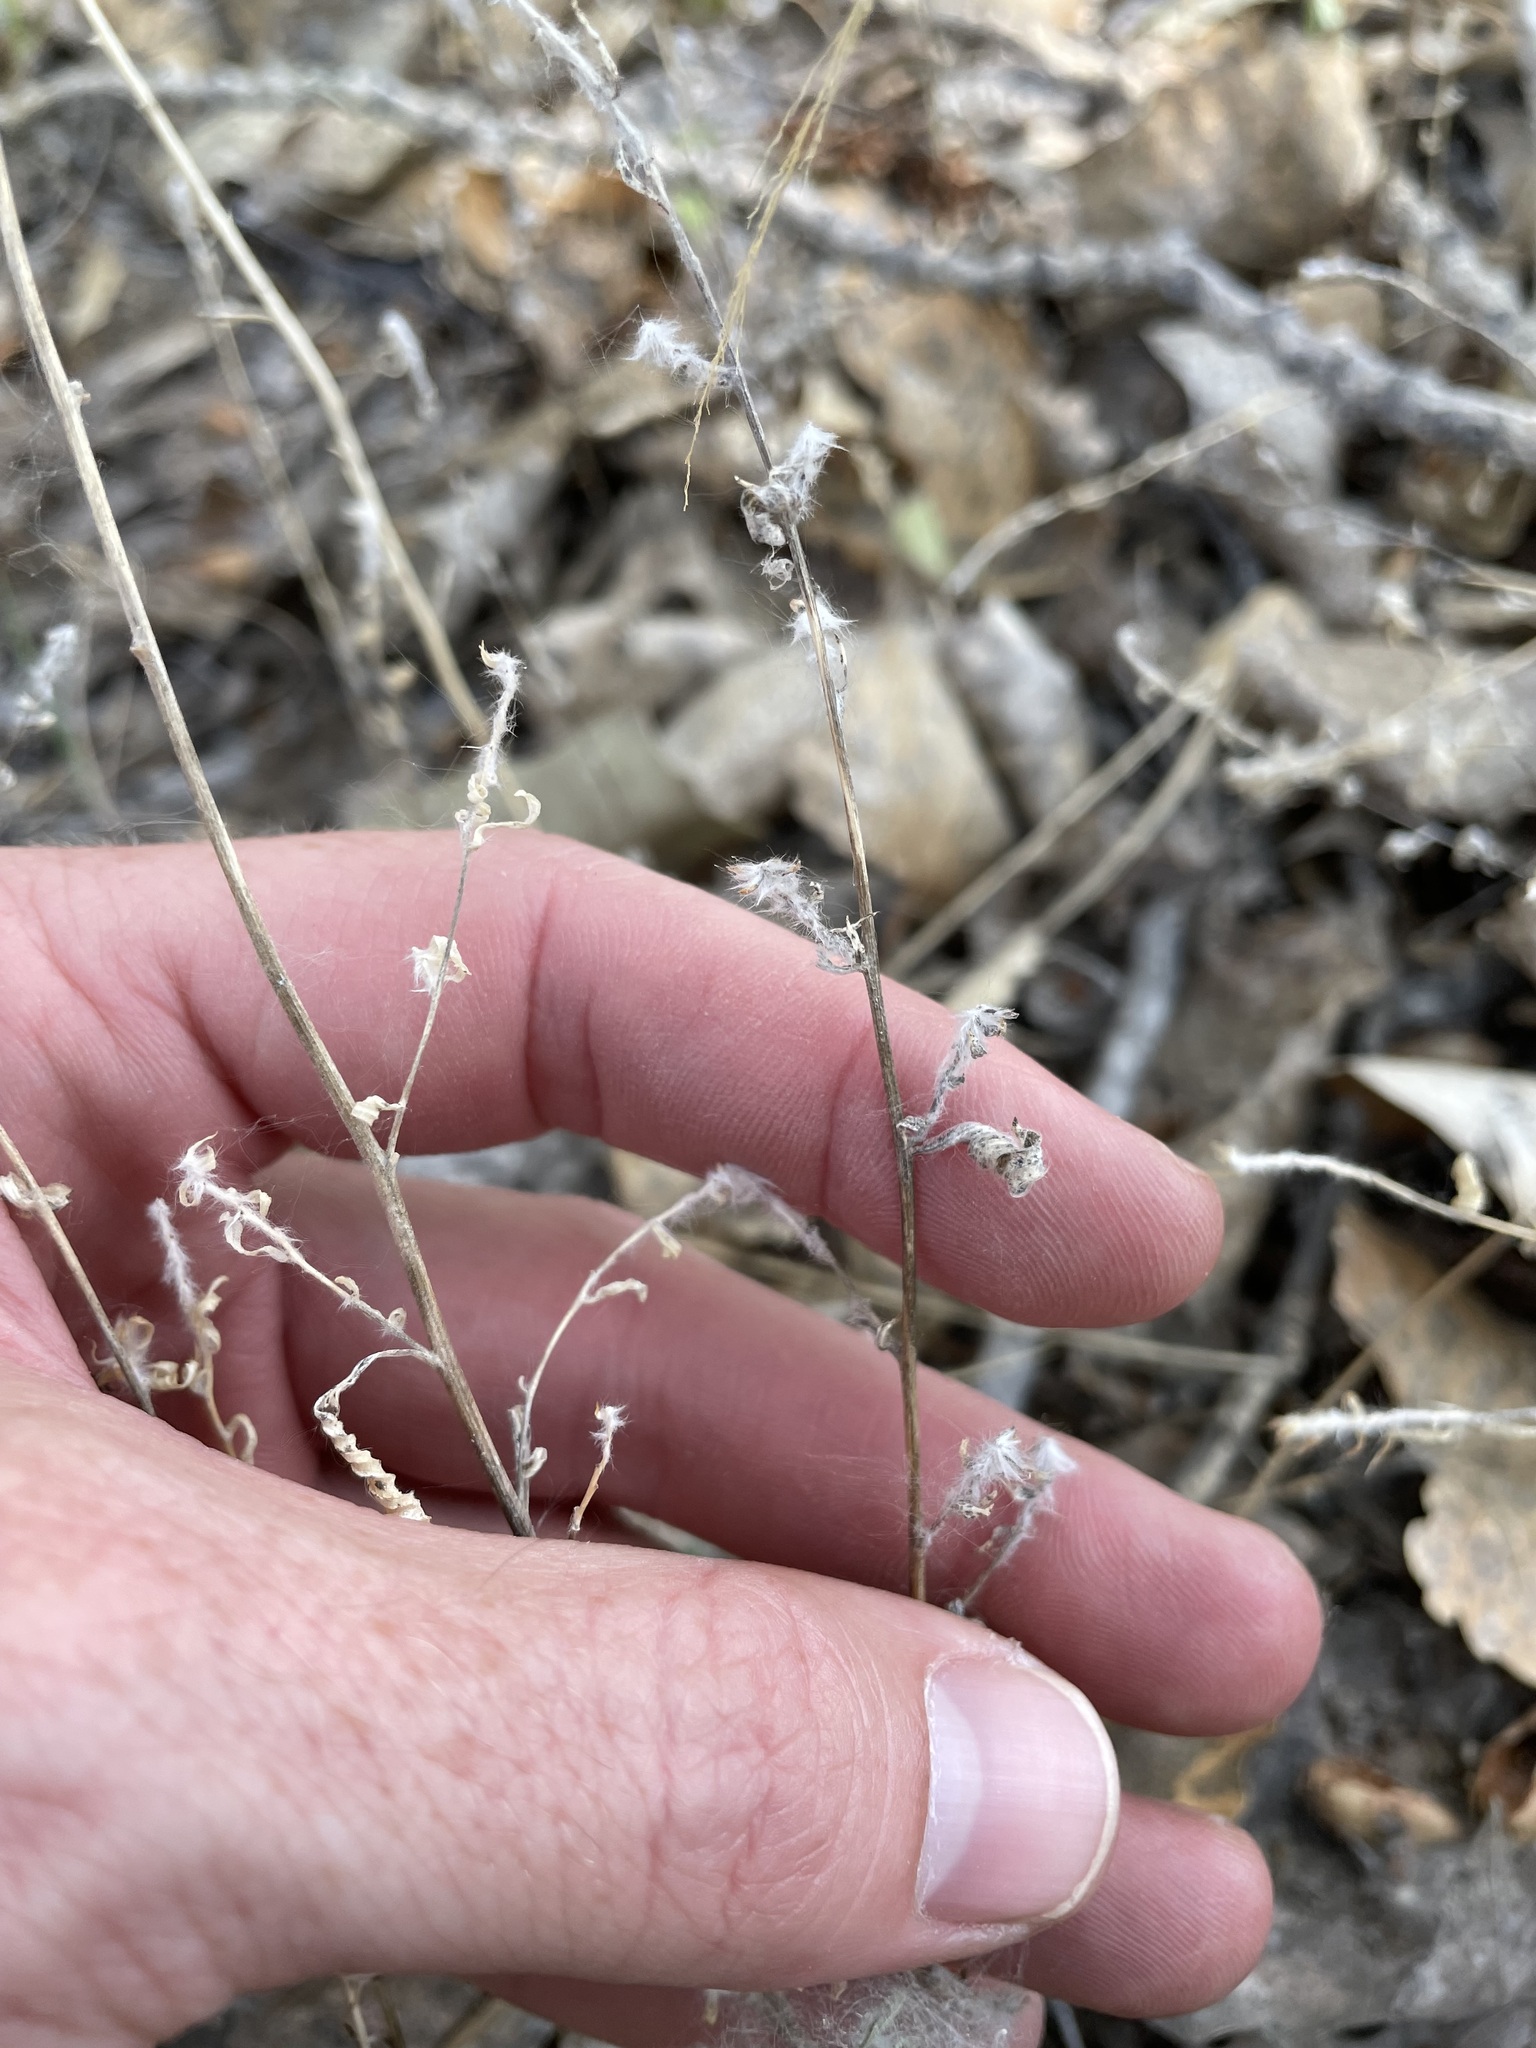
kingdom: Plantae
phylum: Tracheophyta
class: Magnoliopsida
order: Caryophyllales
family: Amaranthaceae
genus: Bassia
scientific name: Bassia scoparia
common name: Belvedere
